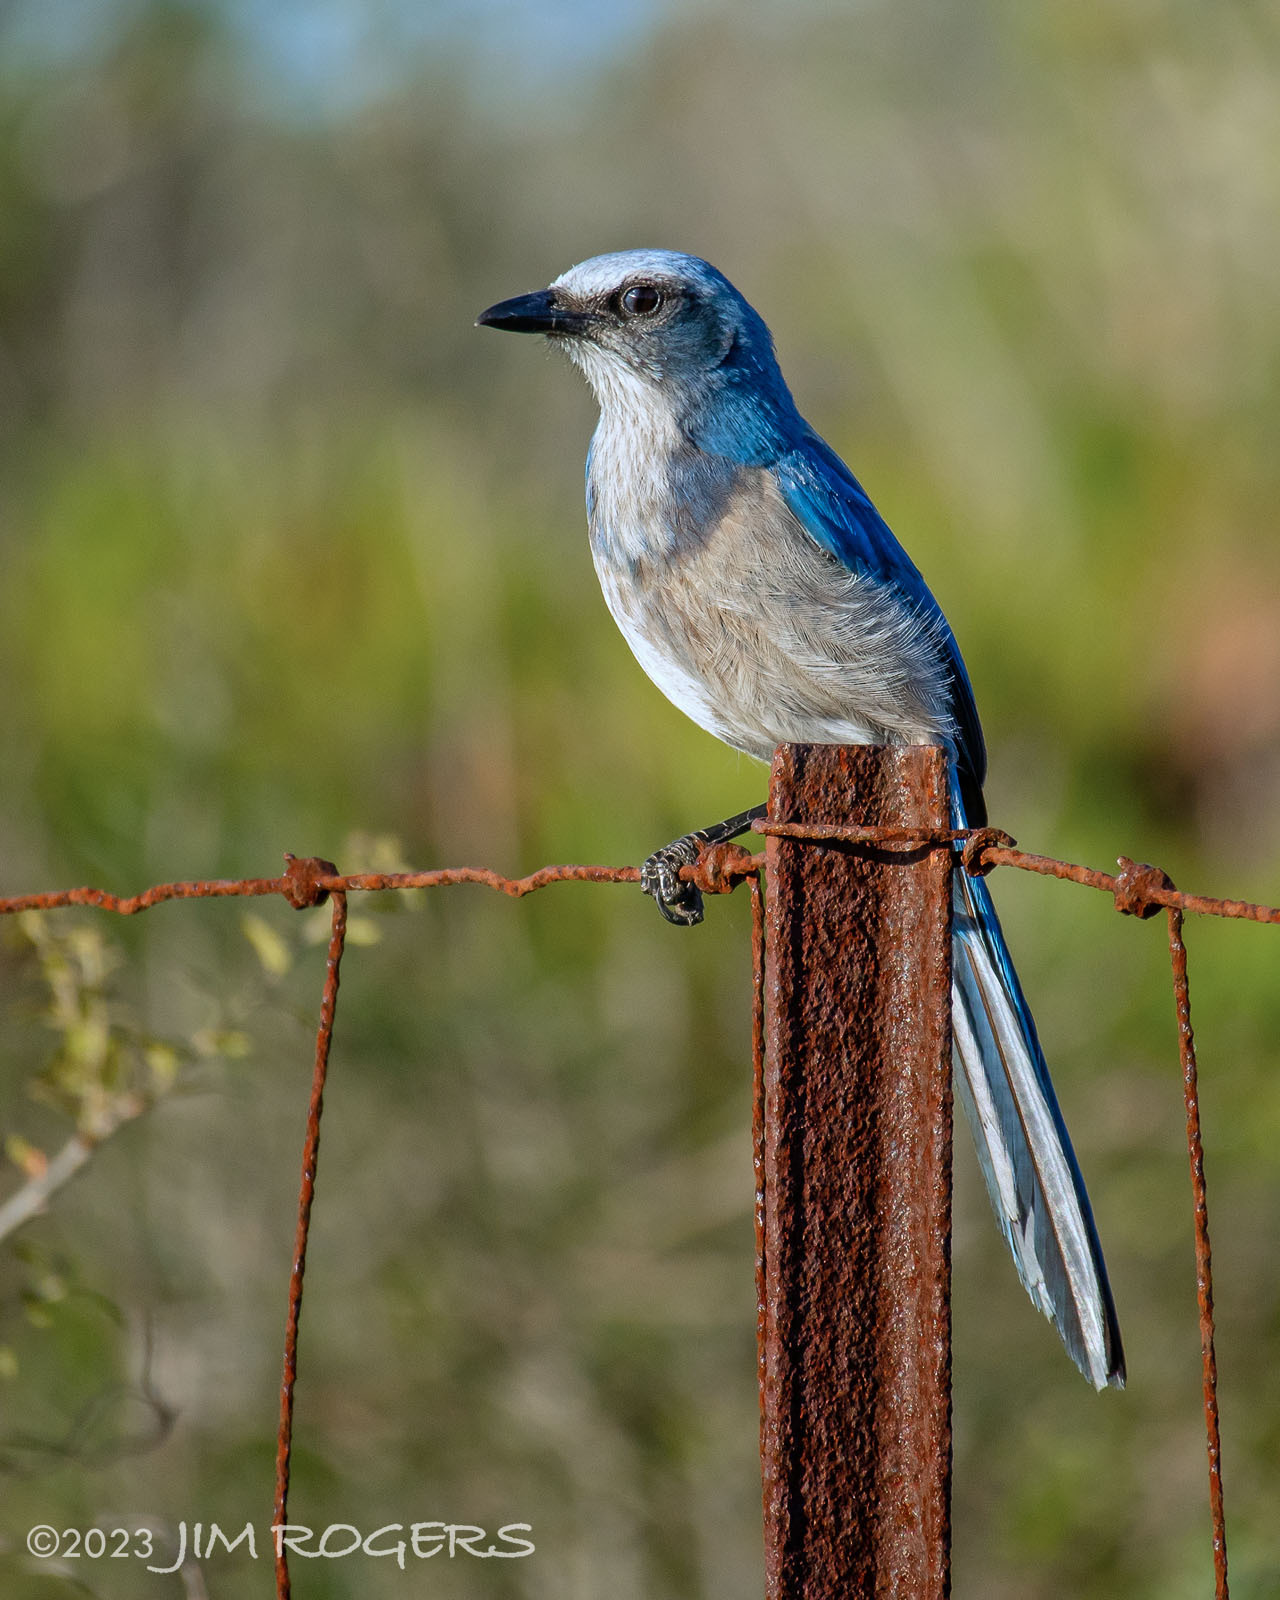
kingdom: Animalia
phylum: Chordata
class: Aves
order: Passeriformes
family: Corvidae
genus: Aphelocoma
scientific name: Aphelocoma coerulescens
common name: Florida scrub jay
